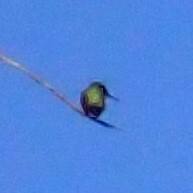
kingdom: Animalia
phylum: Chordata
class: Aves
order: Apodiformes
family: Trochilidae
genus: Archilochus
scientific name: Archilochus colubris
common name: Ruby-throated hummingbird
